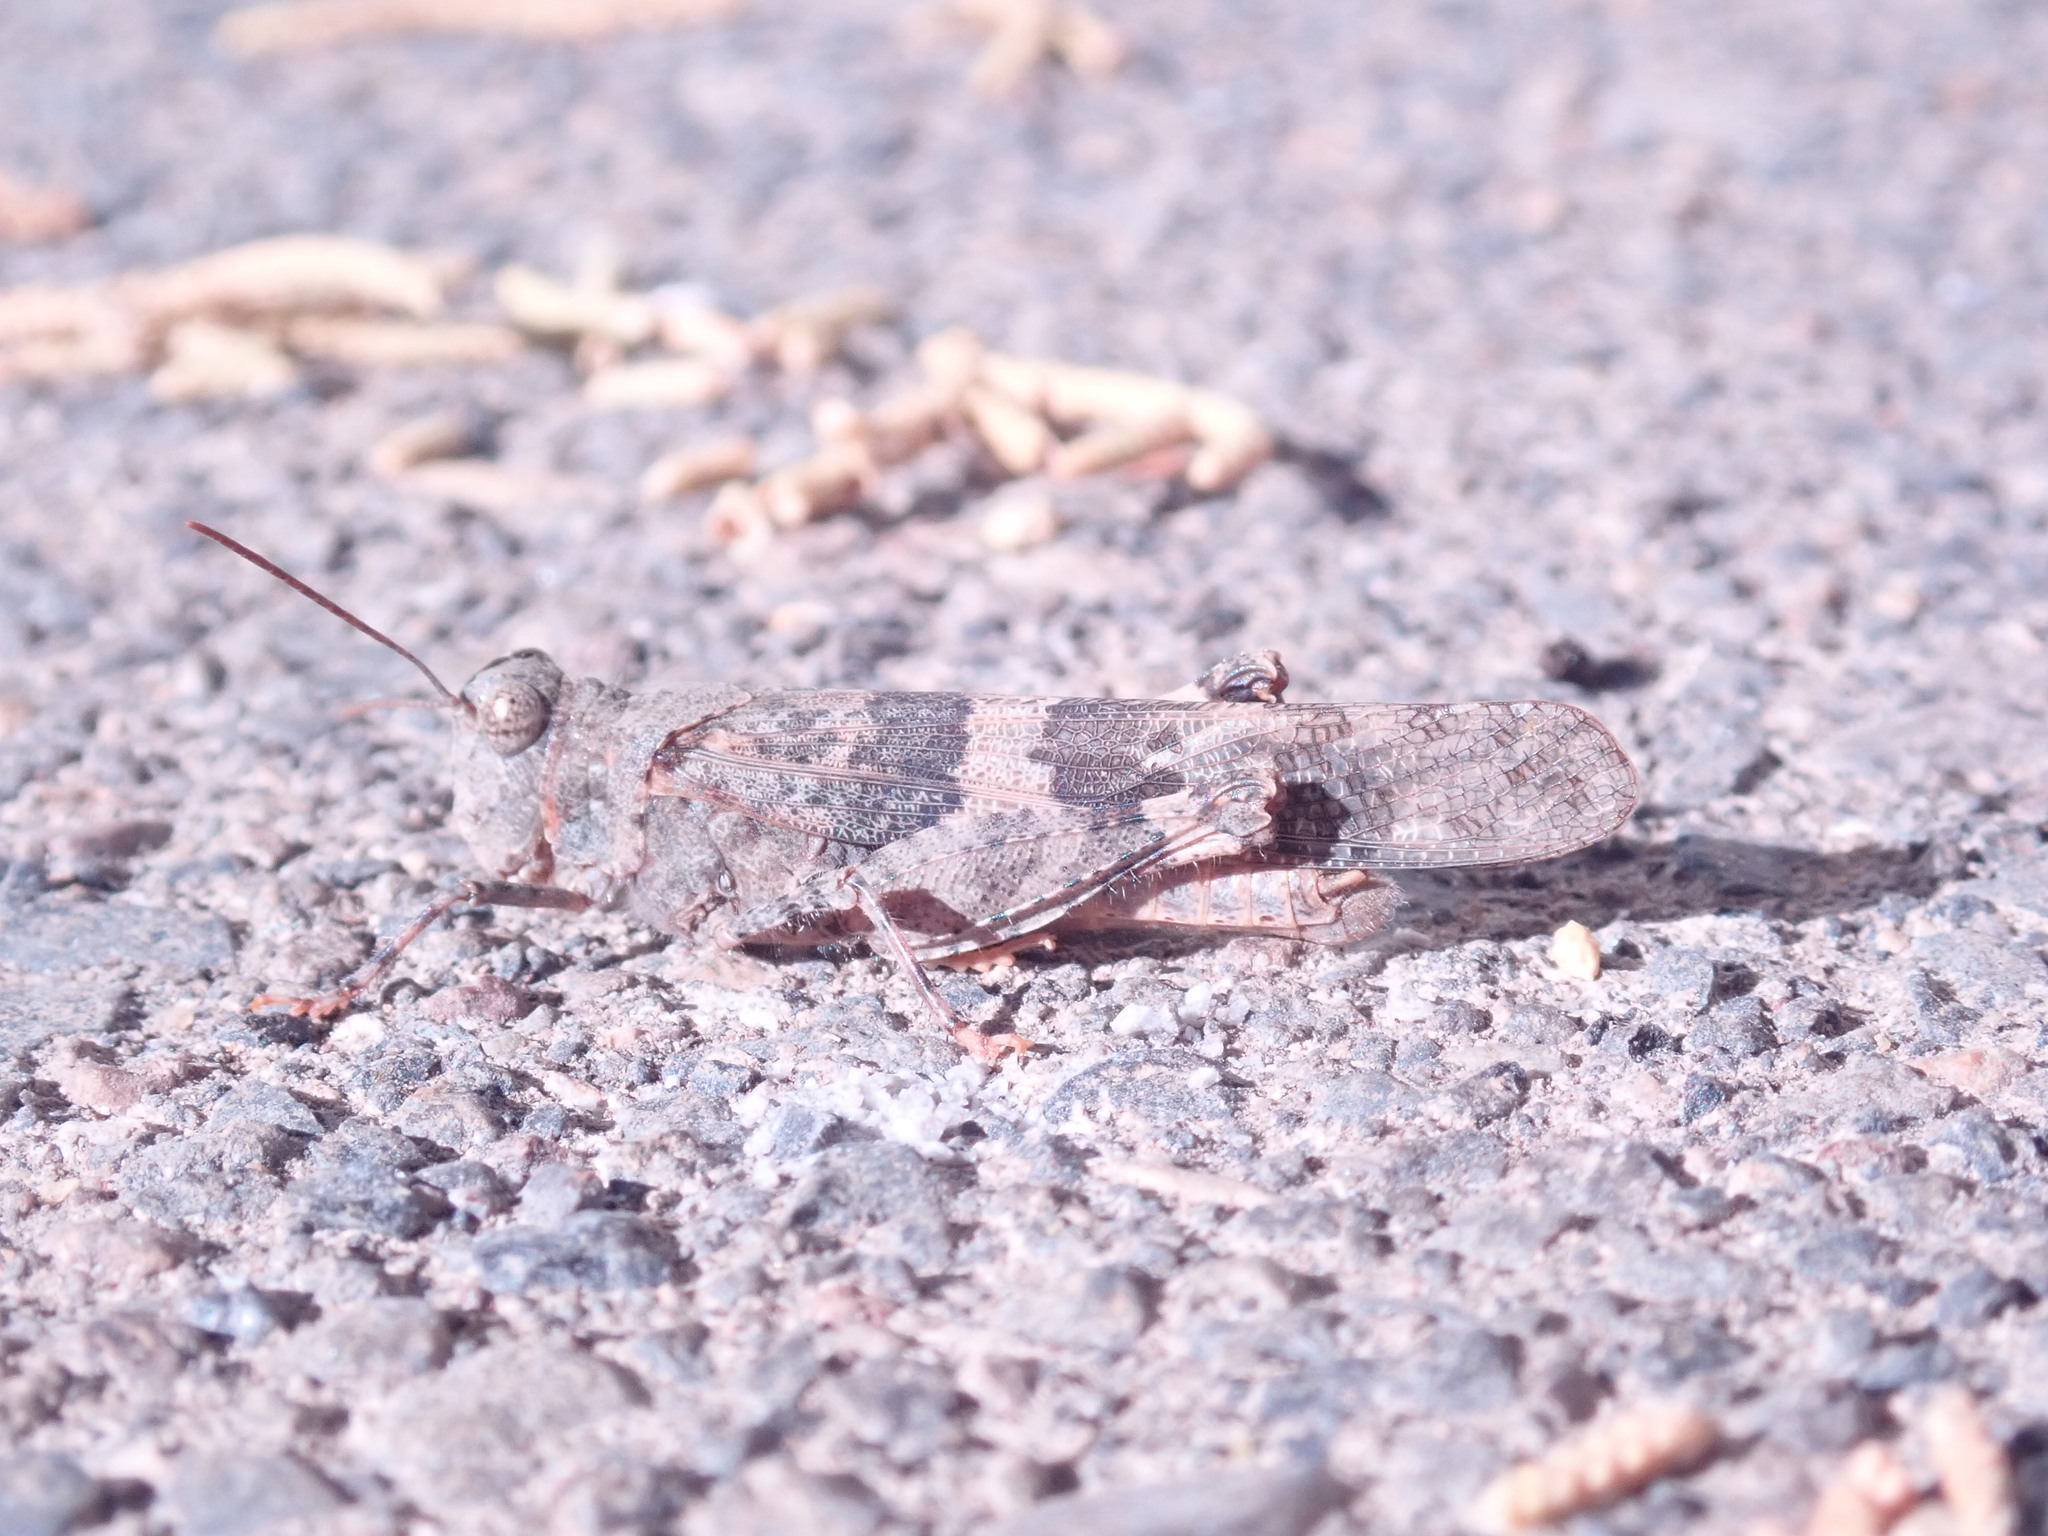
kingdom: Animalia
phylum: Arthropoda
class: Insecta
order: Orthoptera
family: Acrididae
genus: Trimerotropis
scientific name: Trimerotropis pallidipennis
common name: Pallid-winged grasshopper
